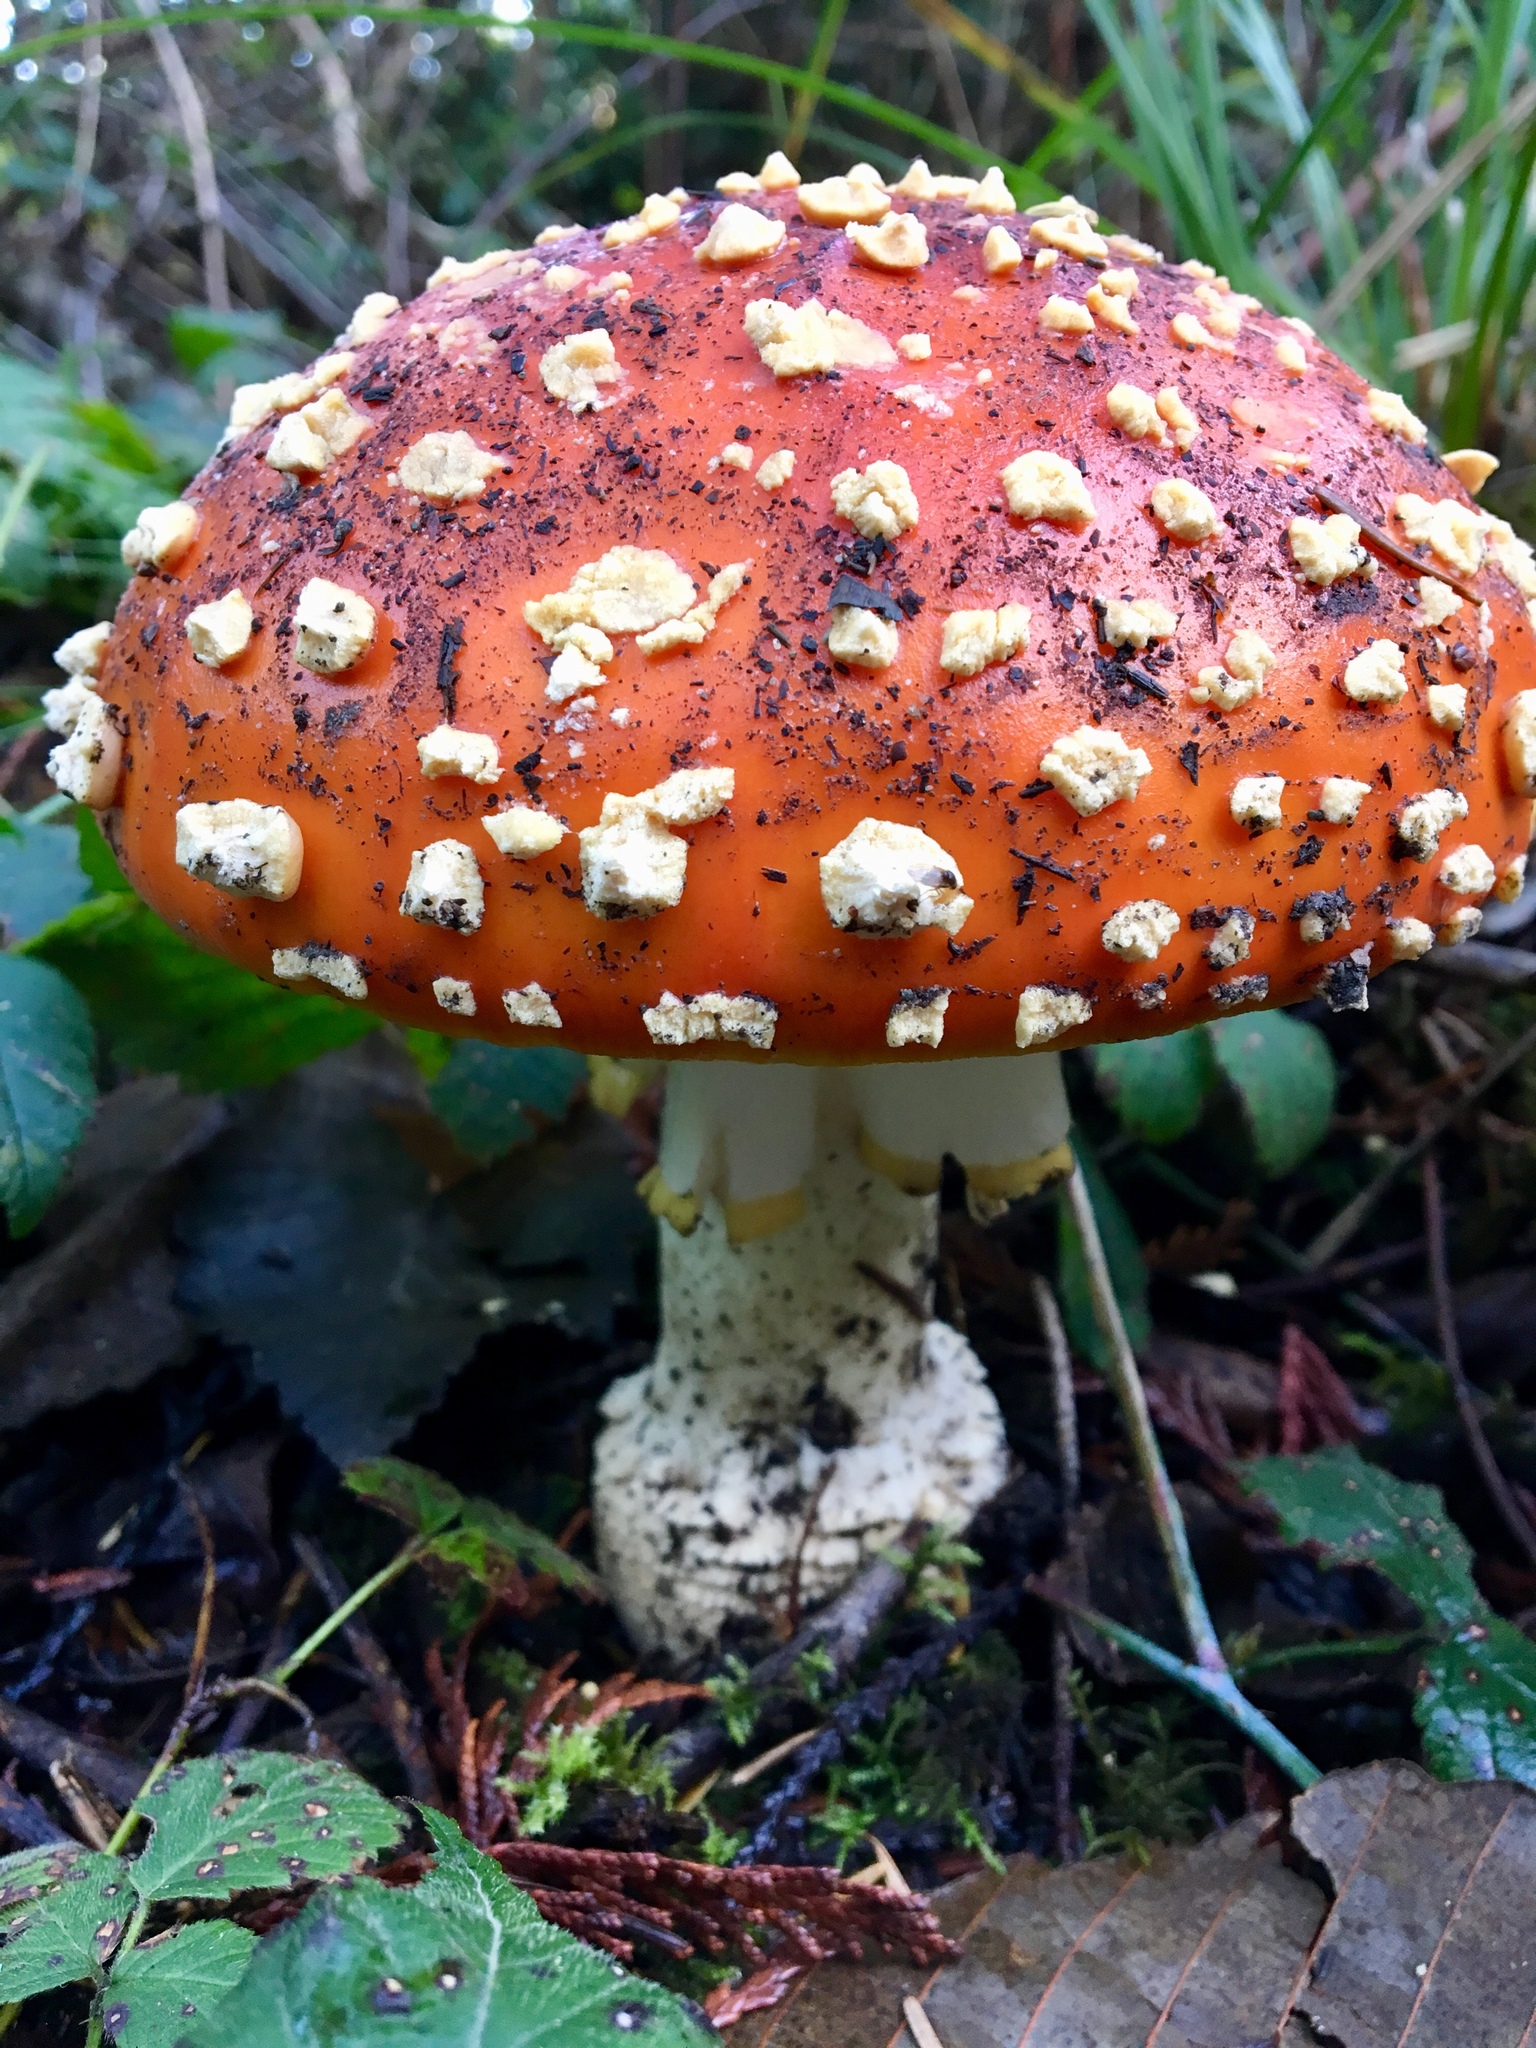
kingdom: Fungi
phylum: Basidiomycota
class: Agaricomycetes
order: Agaricales
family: Amanitaceae
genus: Amanita
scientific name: Amanita muscaria
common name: Fly agaric
